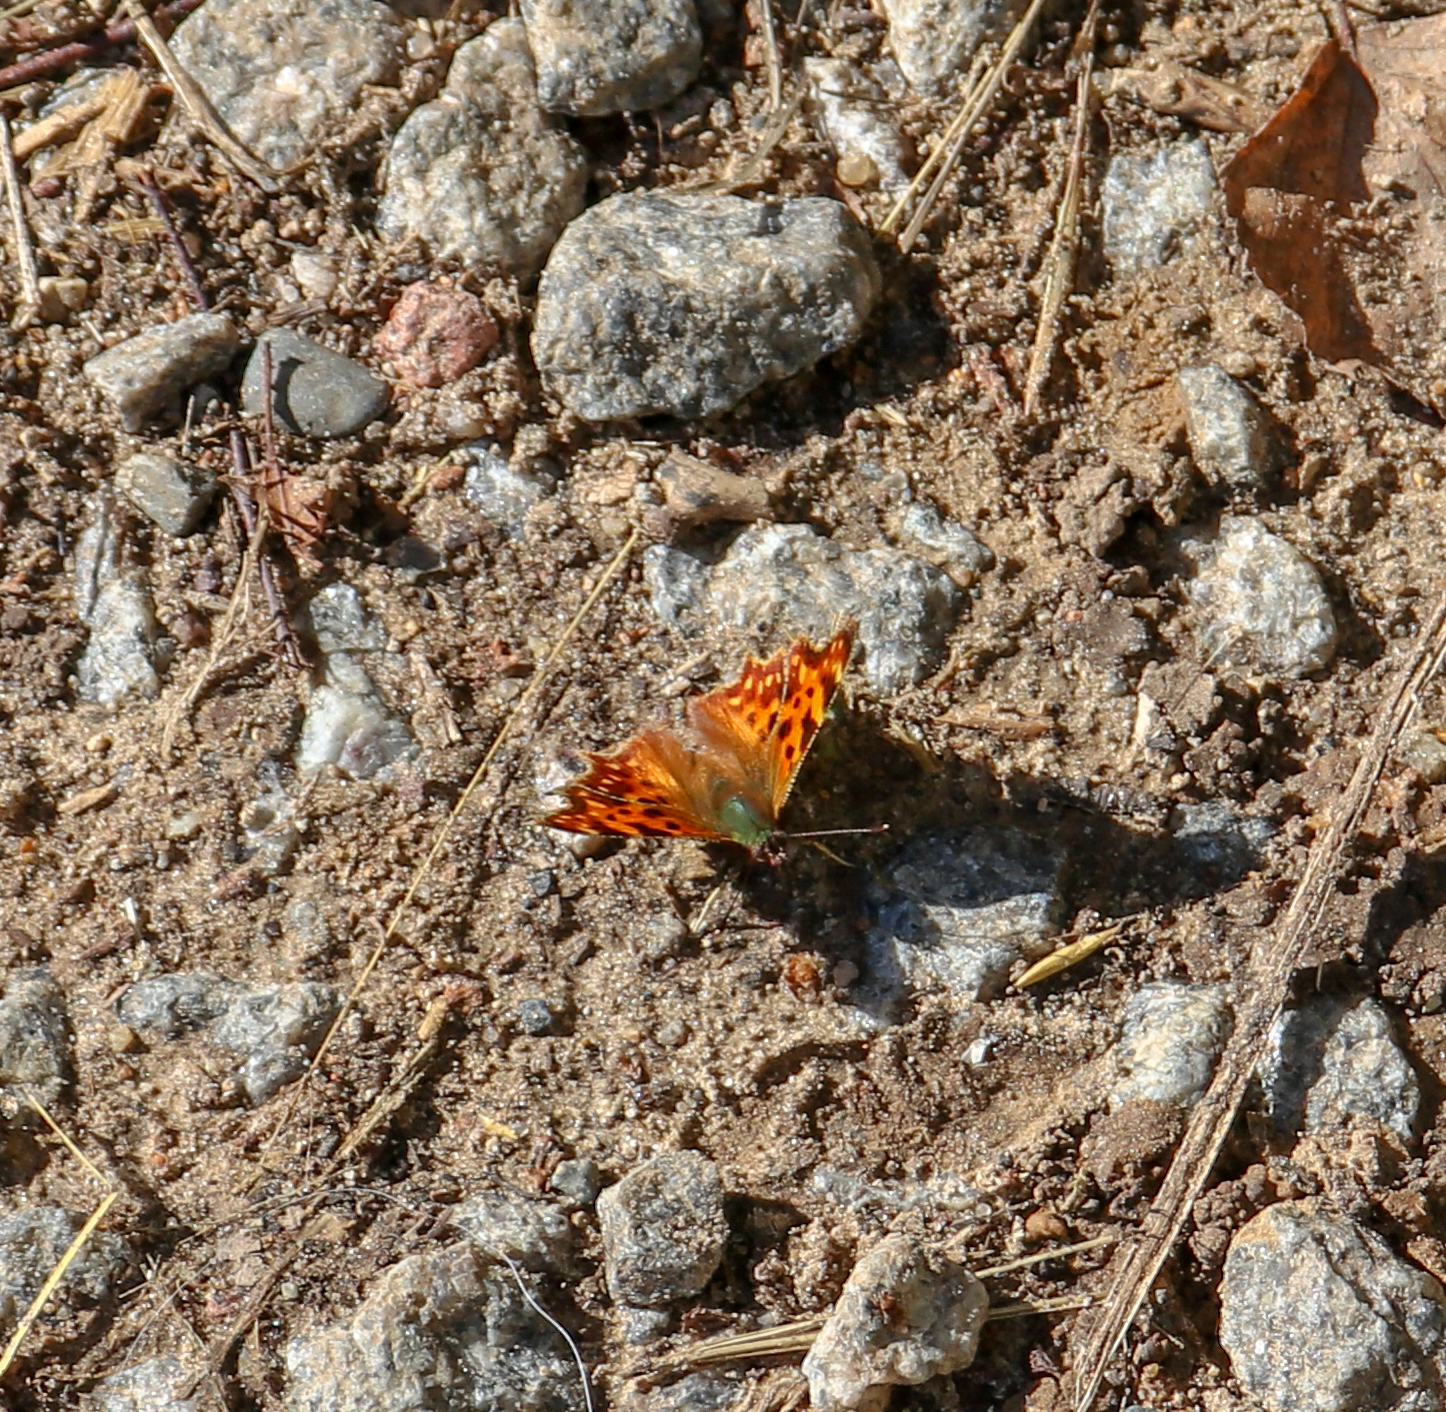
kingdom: Animalia
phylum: Arthropoda
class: Insecta
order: Lepidoptera
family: Nymphalidae
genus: Polygonia
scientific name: Polygonia c-album
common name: Comma
